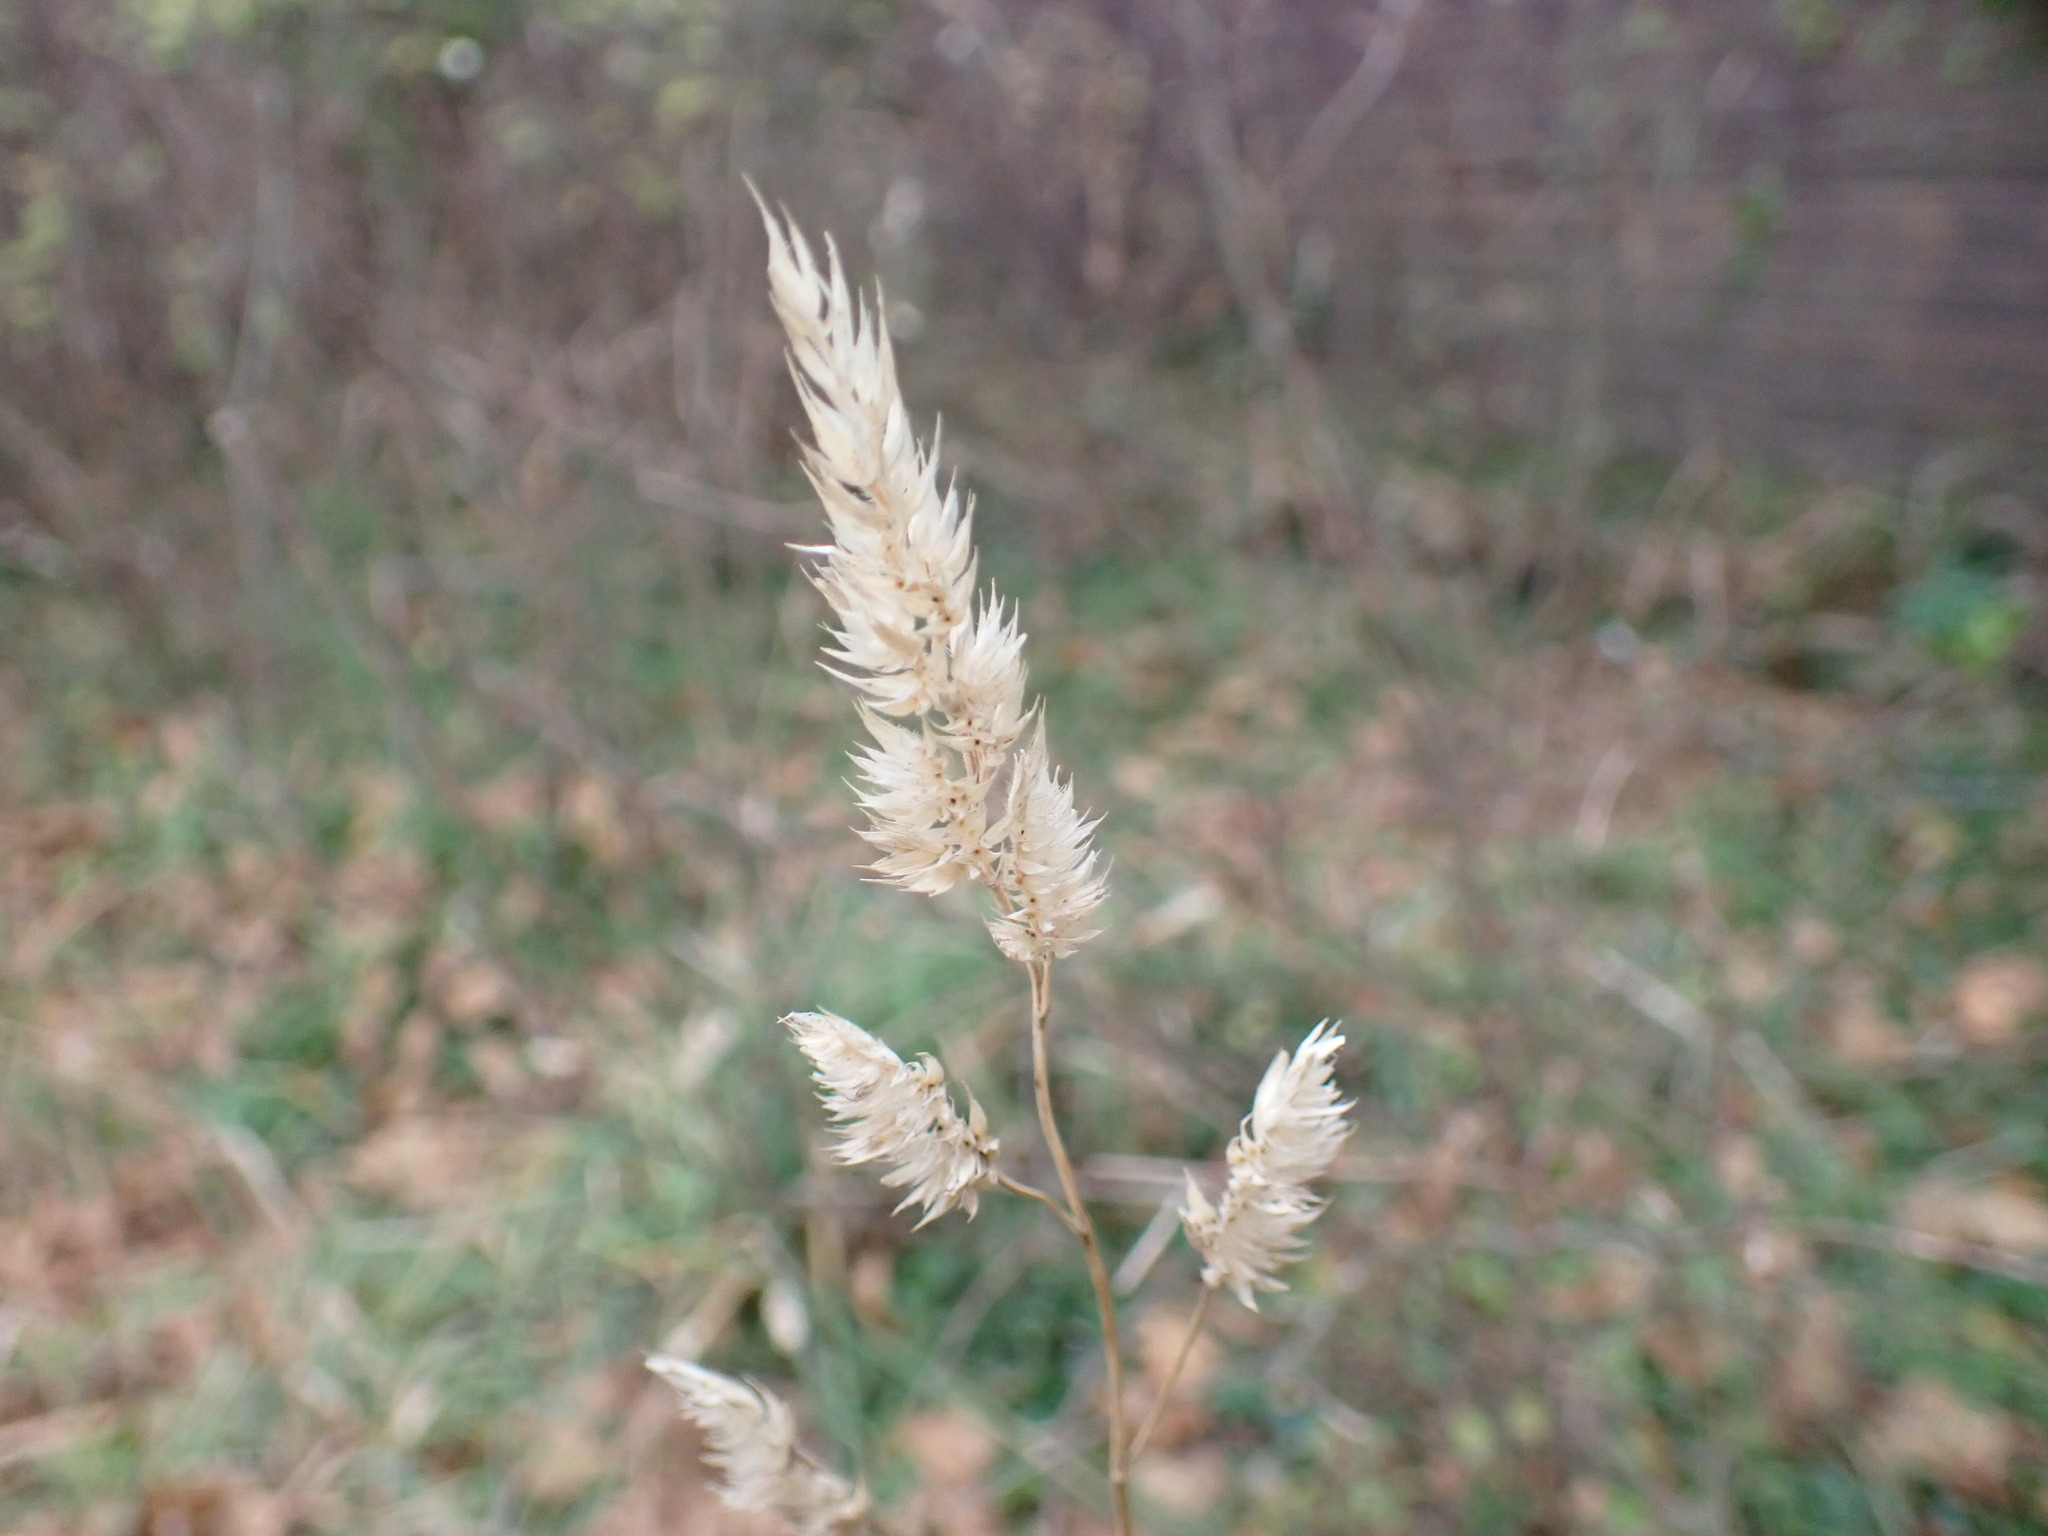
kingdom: Plantae
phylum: Tracheophyta
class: Liliopsida
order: Poales
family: Poaceae
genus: Dactylis
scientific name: Dactylis glomerata
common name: Orchardgrass
